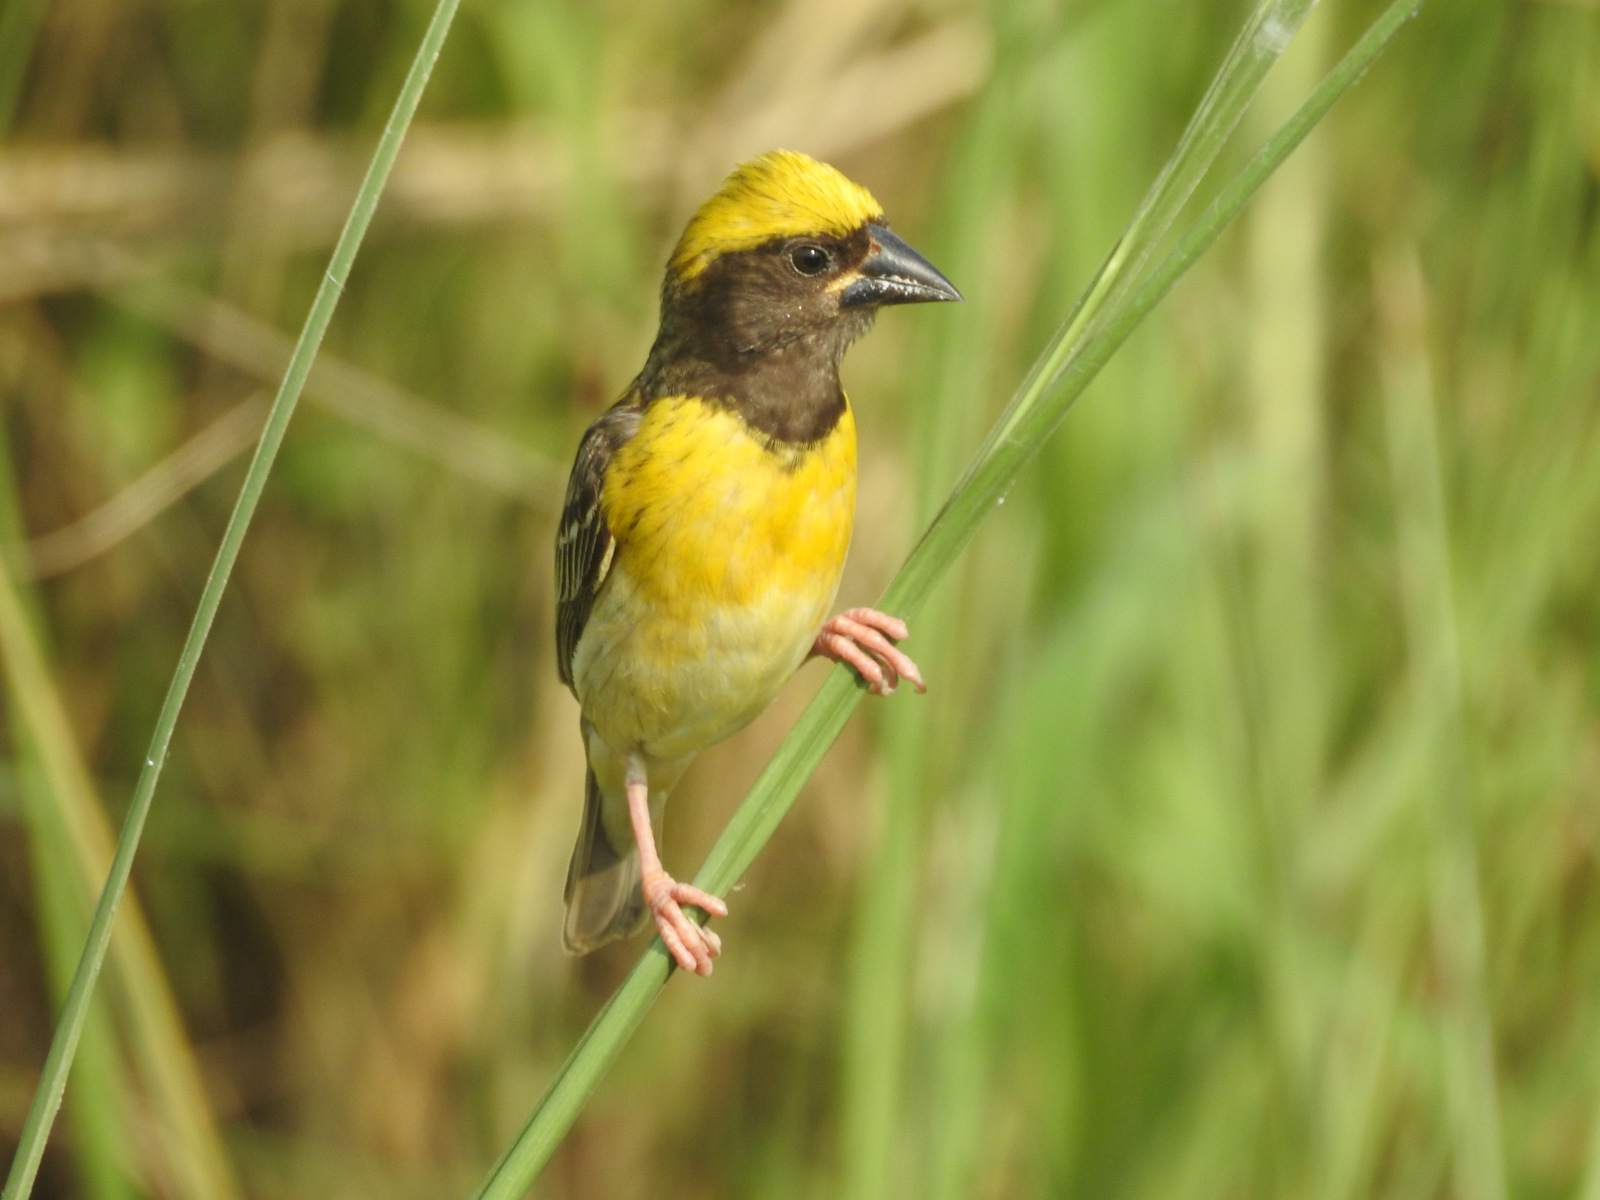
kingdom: Animalia
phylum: Chordata
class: Aves
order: Passeriformes
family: Ploceidae
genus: Ploceus
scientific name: Ploceus philippinus
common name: Baya weaver
